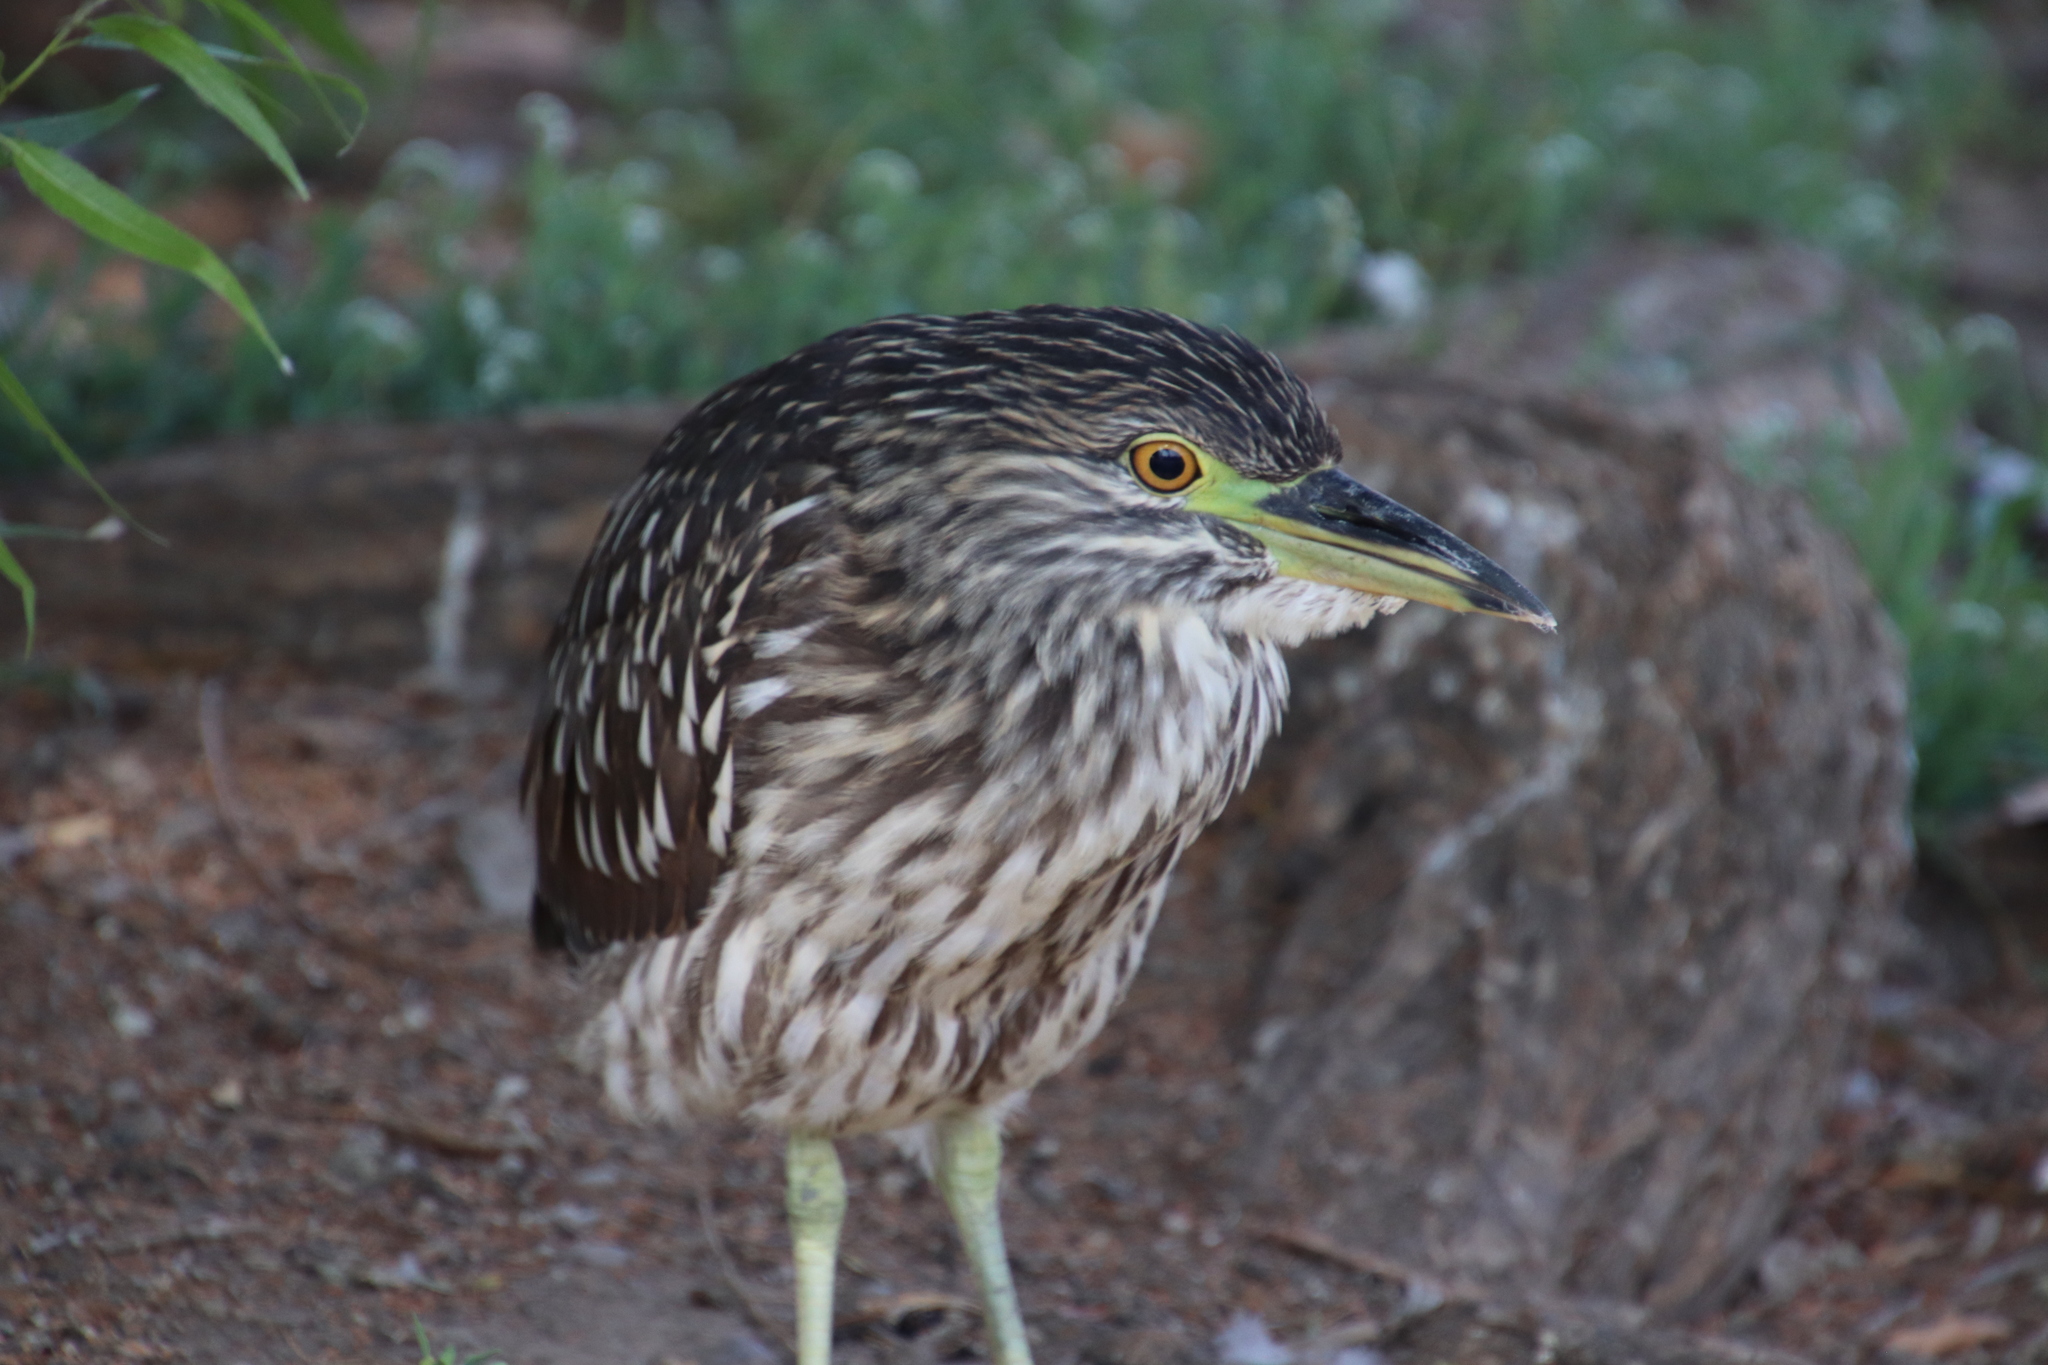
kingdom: Animalia
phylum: Chordata
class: Aves
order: Pelecaniformes
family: Ardeidae
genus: Nycticorax
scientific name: Nycticorax nycticorax
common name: Black-crowned night heron
